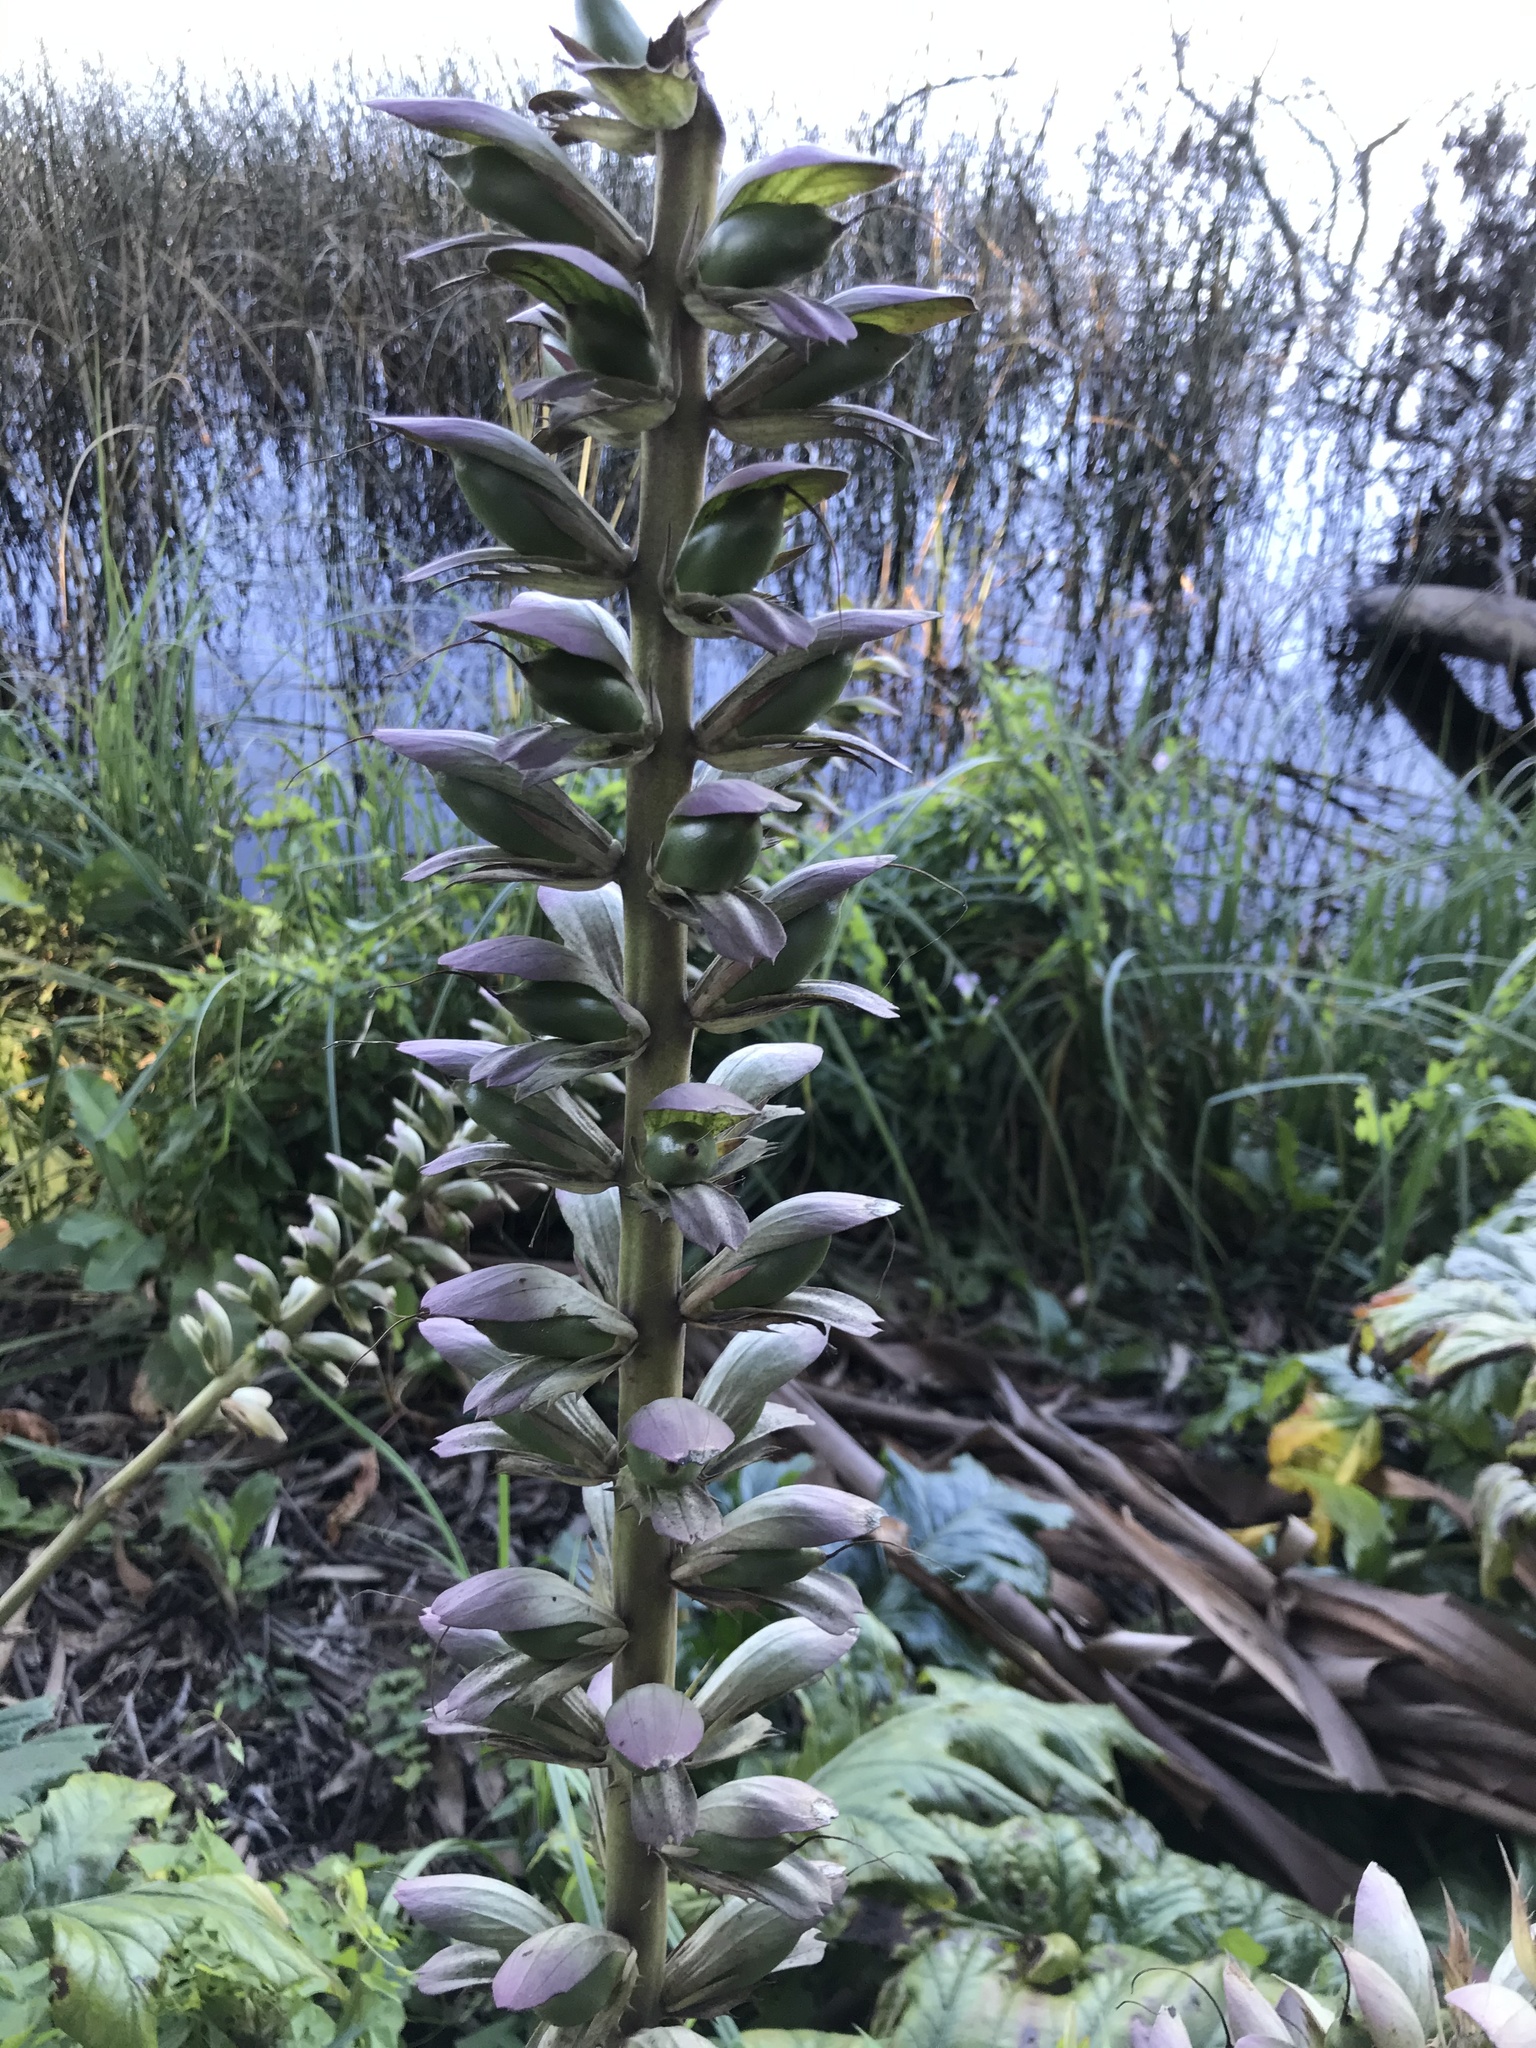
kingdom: Plantae
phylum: Tracheophyta
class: Magnoliopsida
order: Lamiales
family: Acanthaceae
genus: Acanthus
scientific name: Acanthus mollis
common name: Bear's-breech
